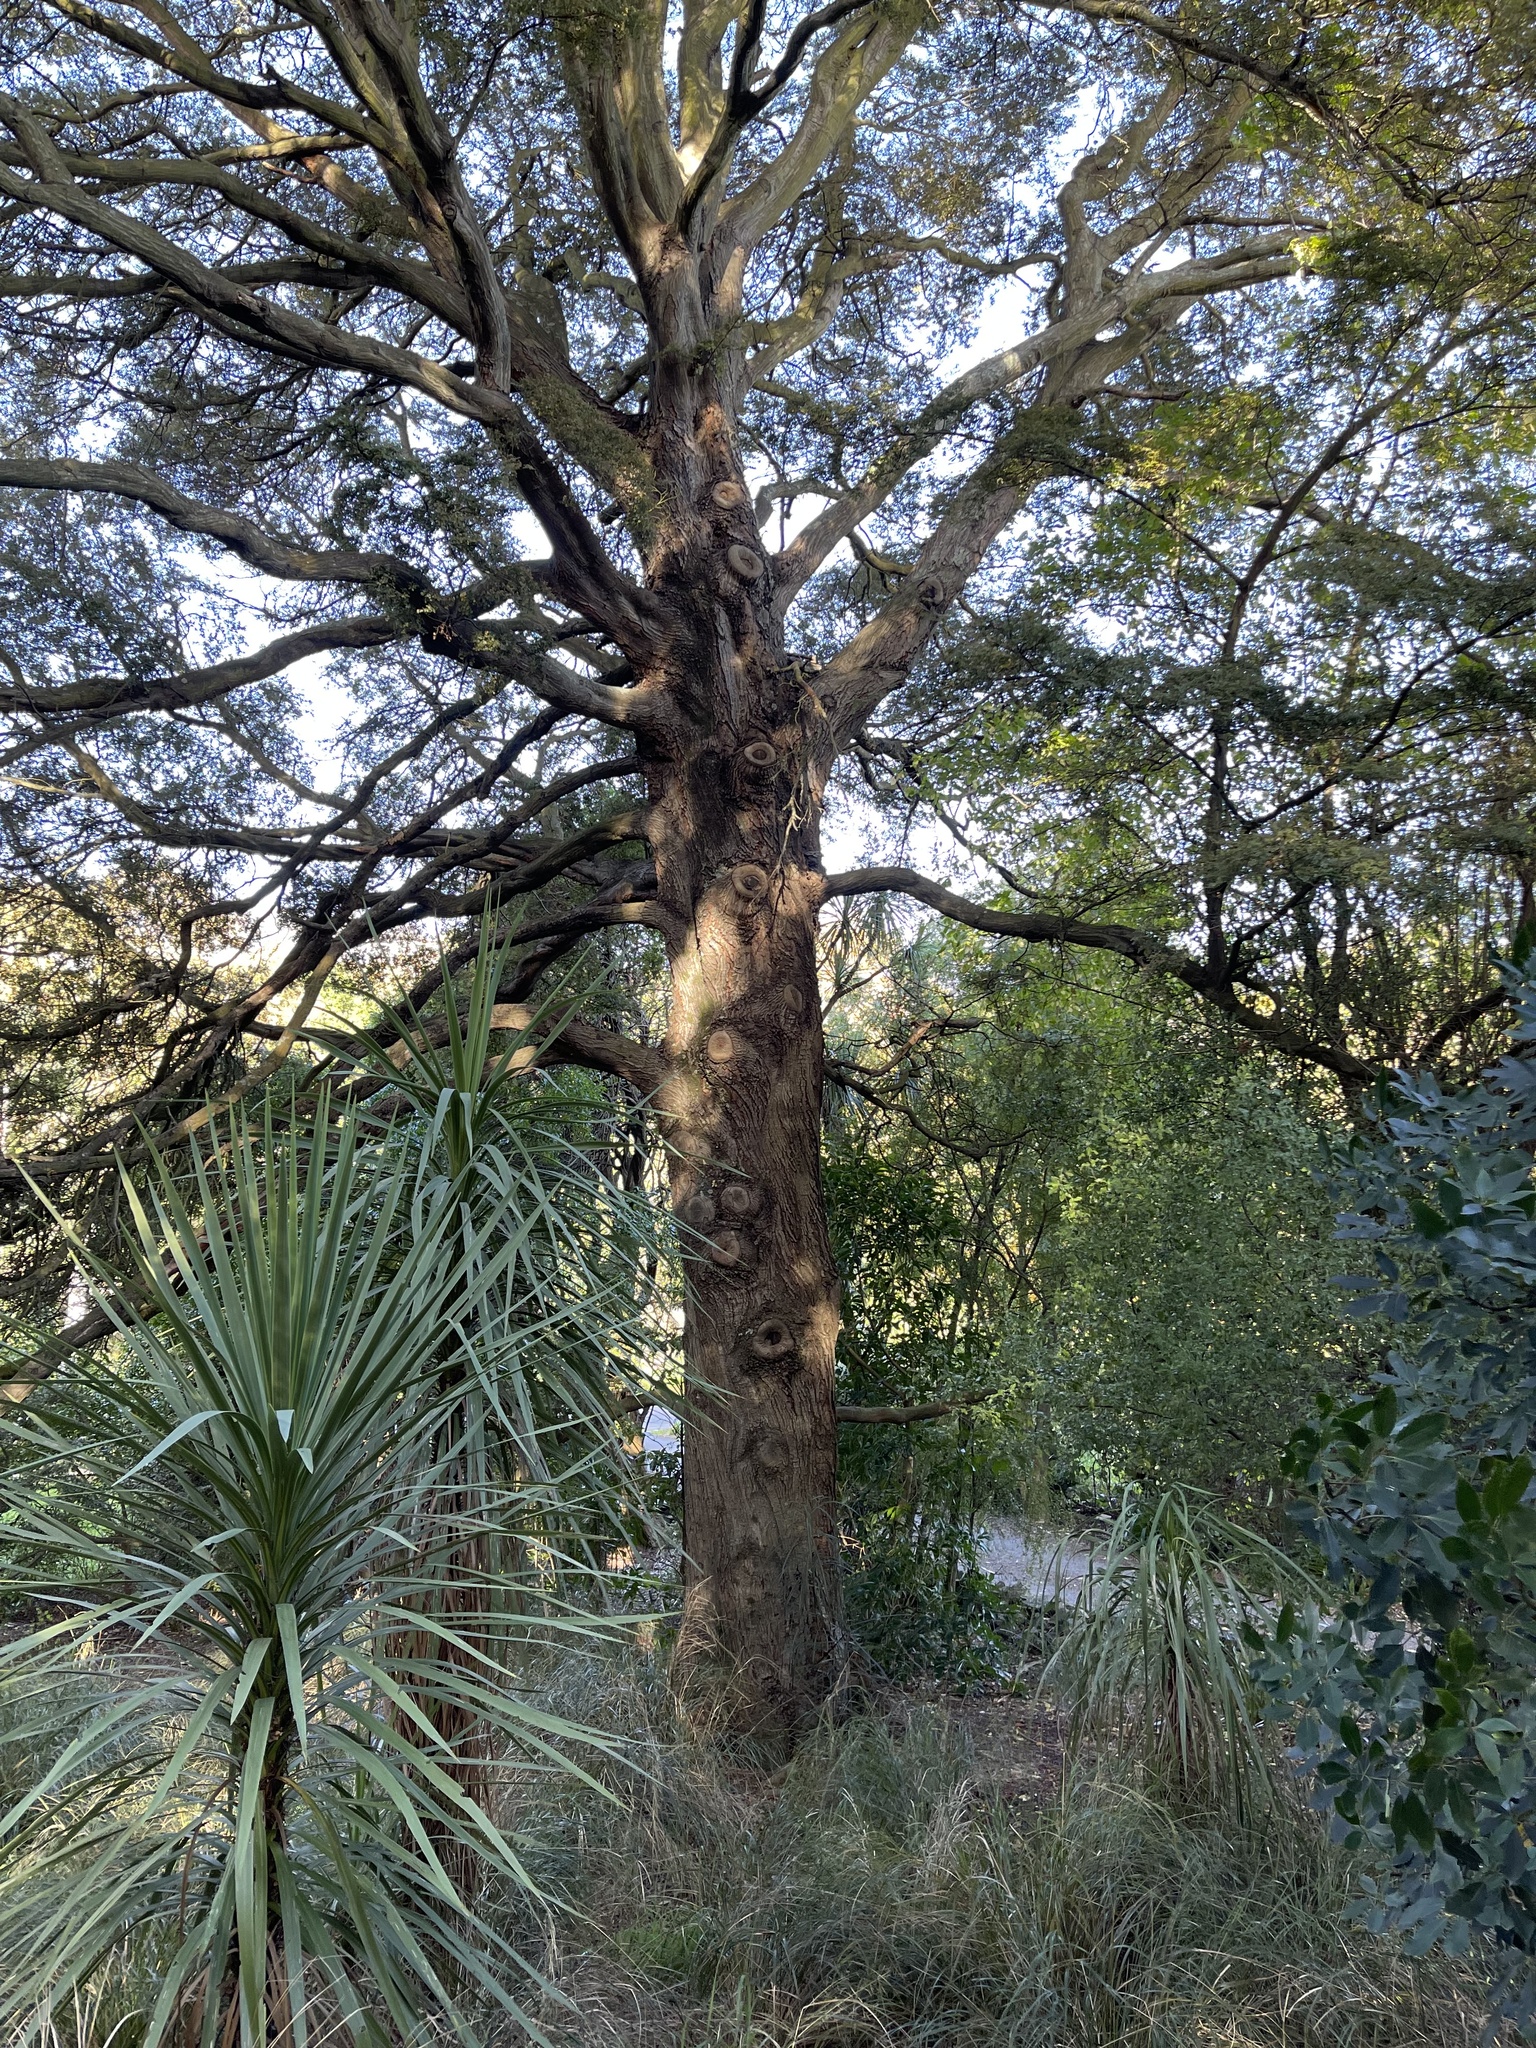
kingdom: Plantae
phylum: Tracheophyta
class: Magnoliopsida
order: Fagales
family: Nothofagaceae
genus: Nothofagus
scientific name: Nothofagus solandri
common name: Black beech
